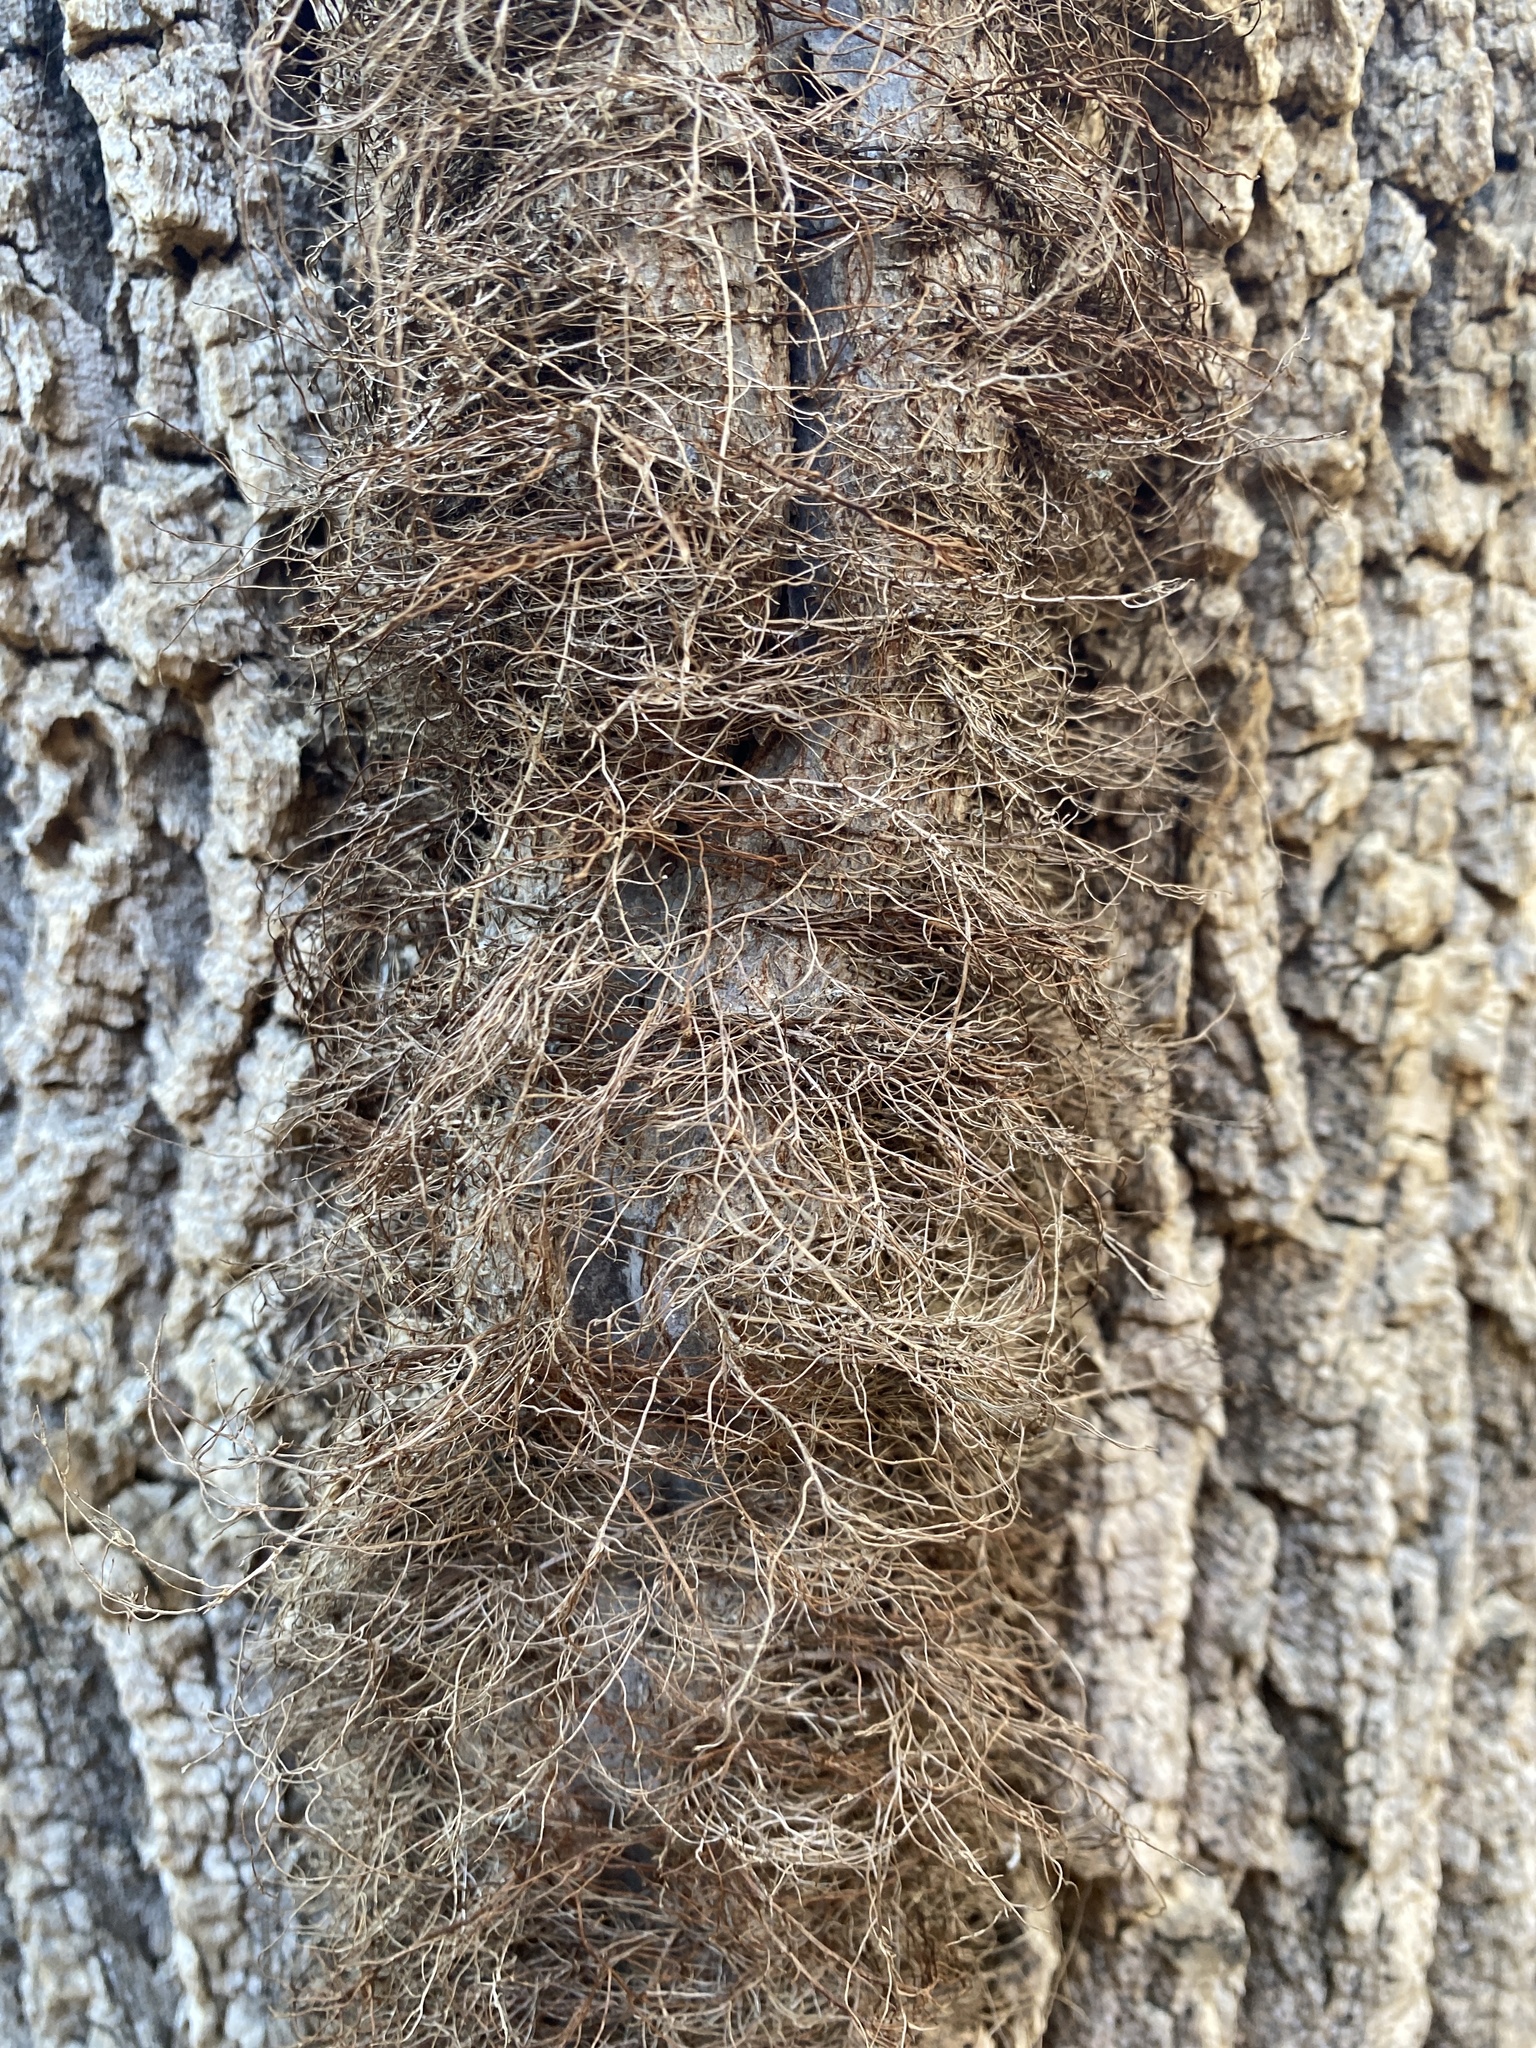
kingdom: Plantae
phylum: Tracheophyta
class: Magnoliopsida
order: Sapindales
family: Anacardiaceae
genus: Toxicodendron
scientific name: Toxicodendron radicans
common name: Poison ivy
